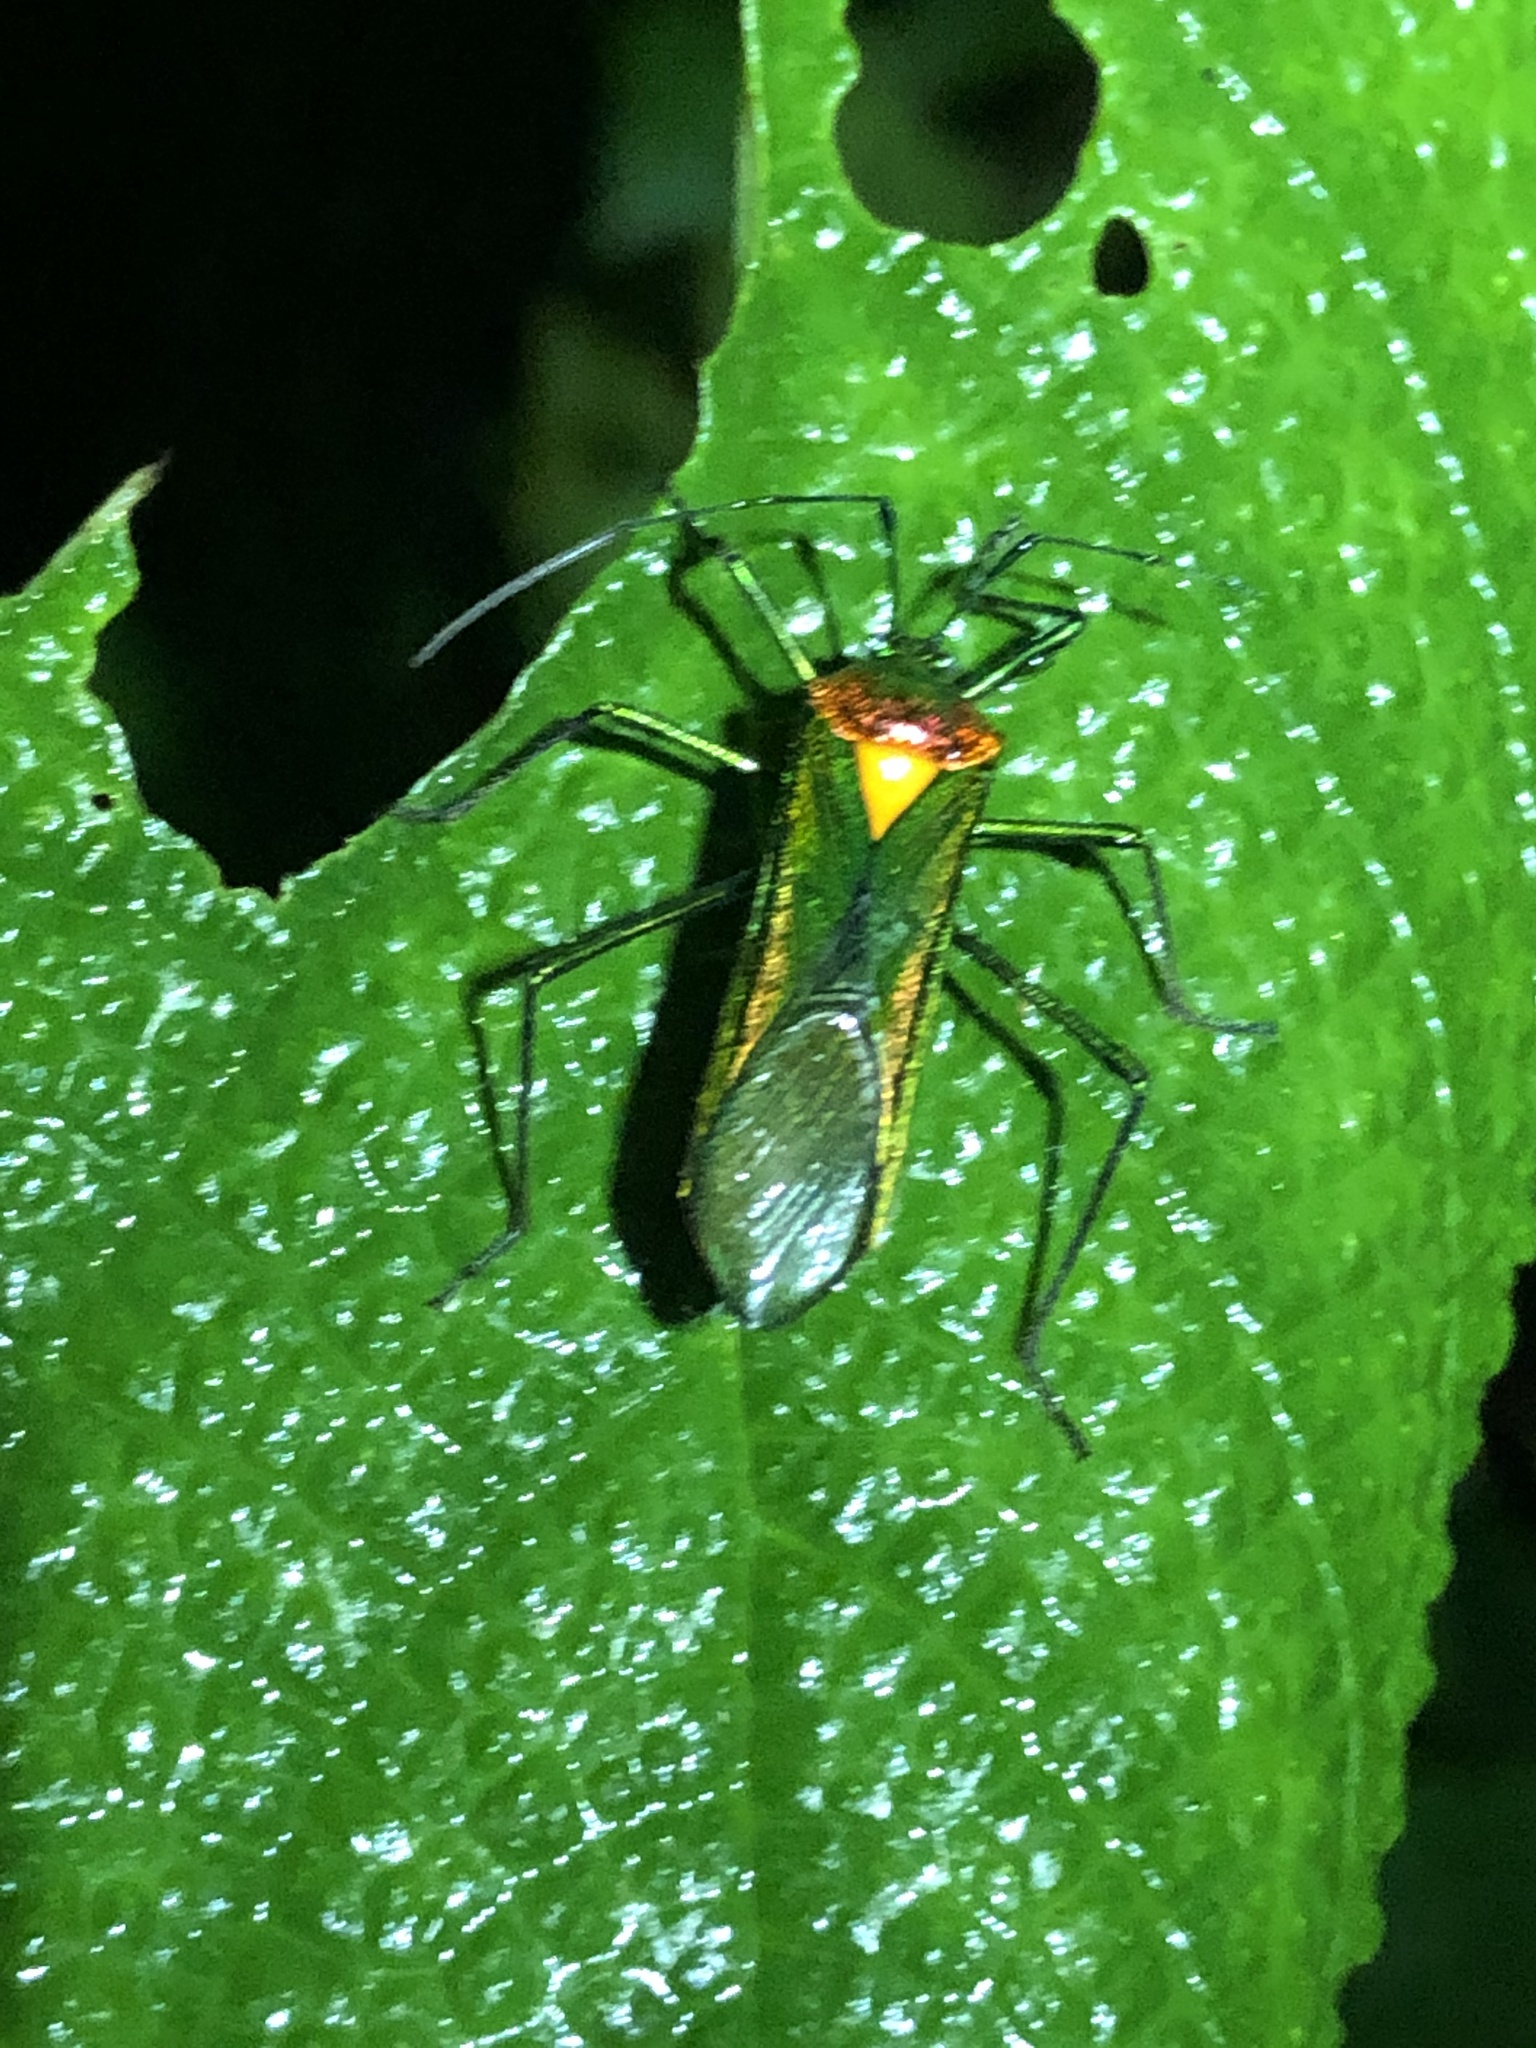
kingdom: Animalia
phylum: Arthropoda
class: Insecta
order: Hemiptera
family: Coreidae
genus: Stenoprasia
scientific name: Stenoprasia bicolora
